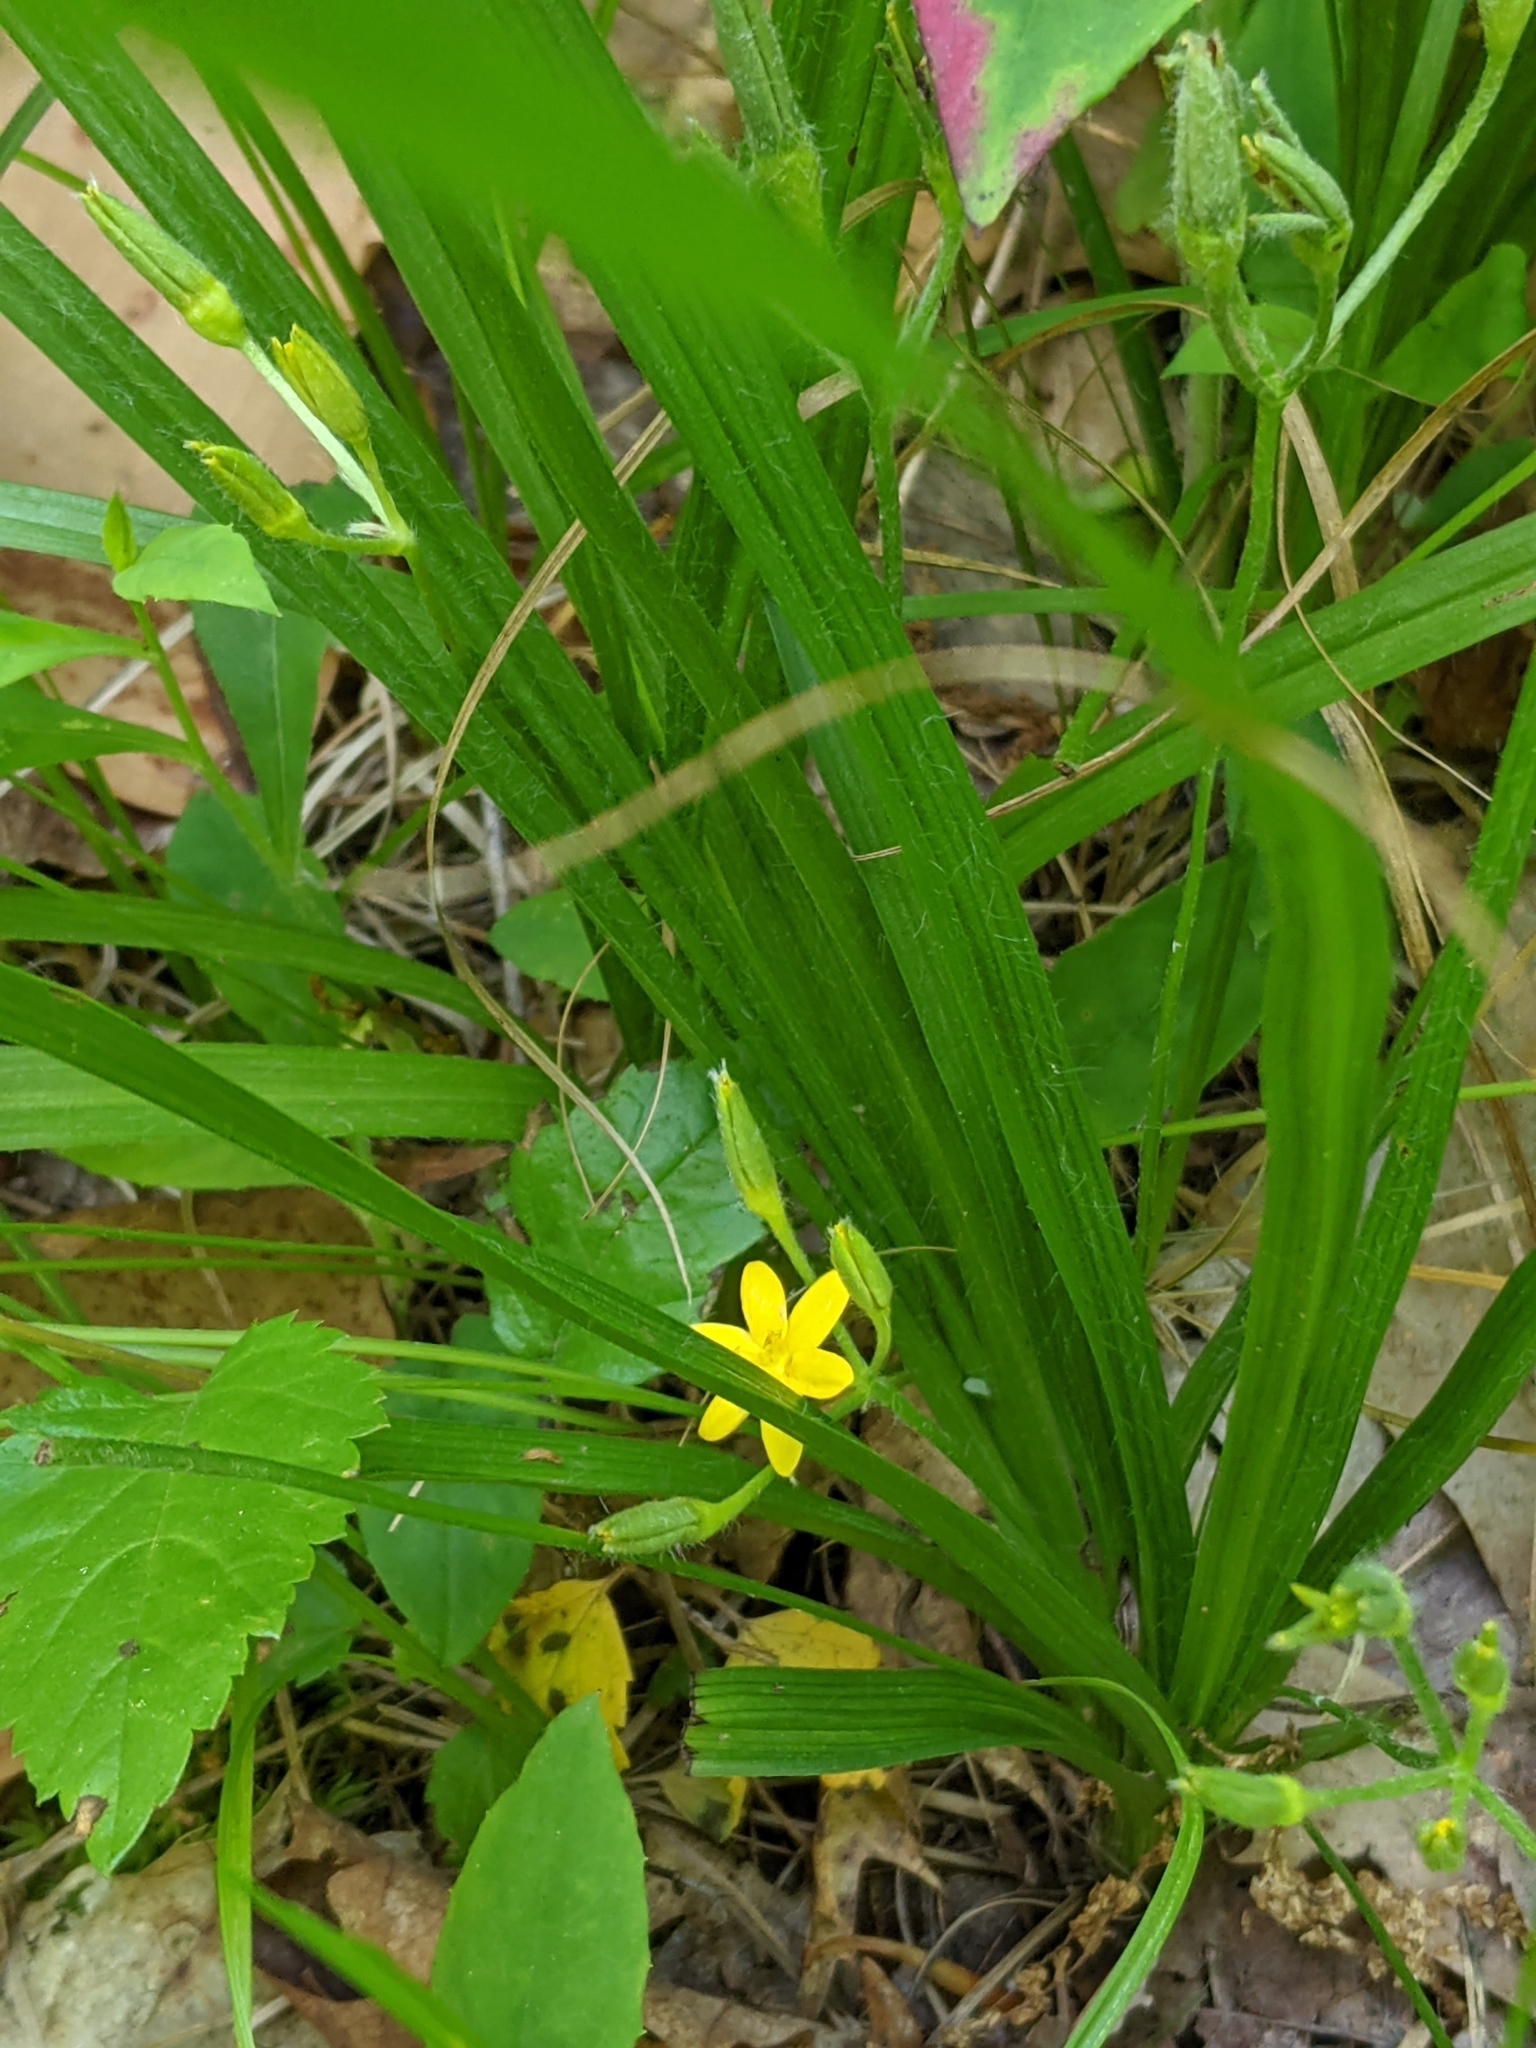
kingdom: Plantae
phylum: Tracheophyta
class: Liliopsida
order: Asparagales
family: Hypoxidaceae
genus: Hypoxis
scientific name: Hypoxis hirsuta
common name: Common goldstar
